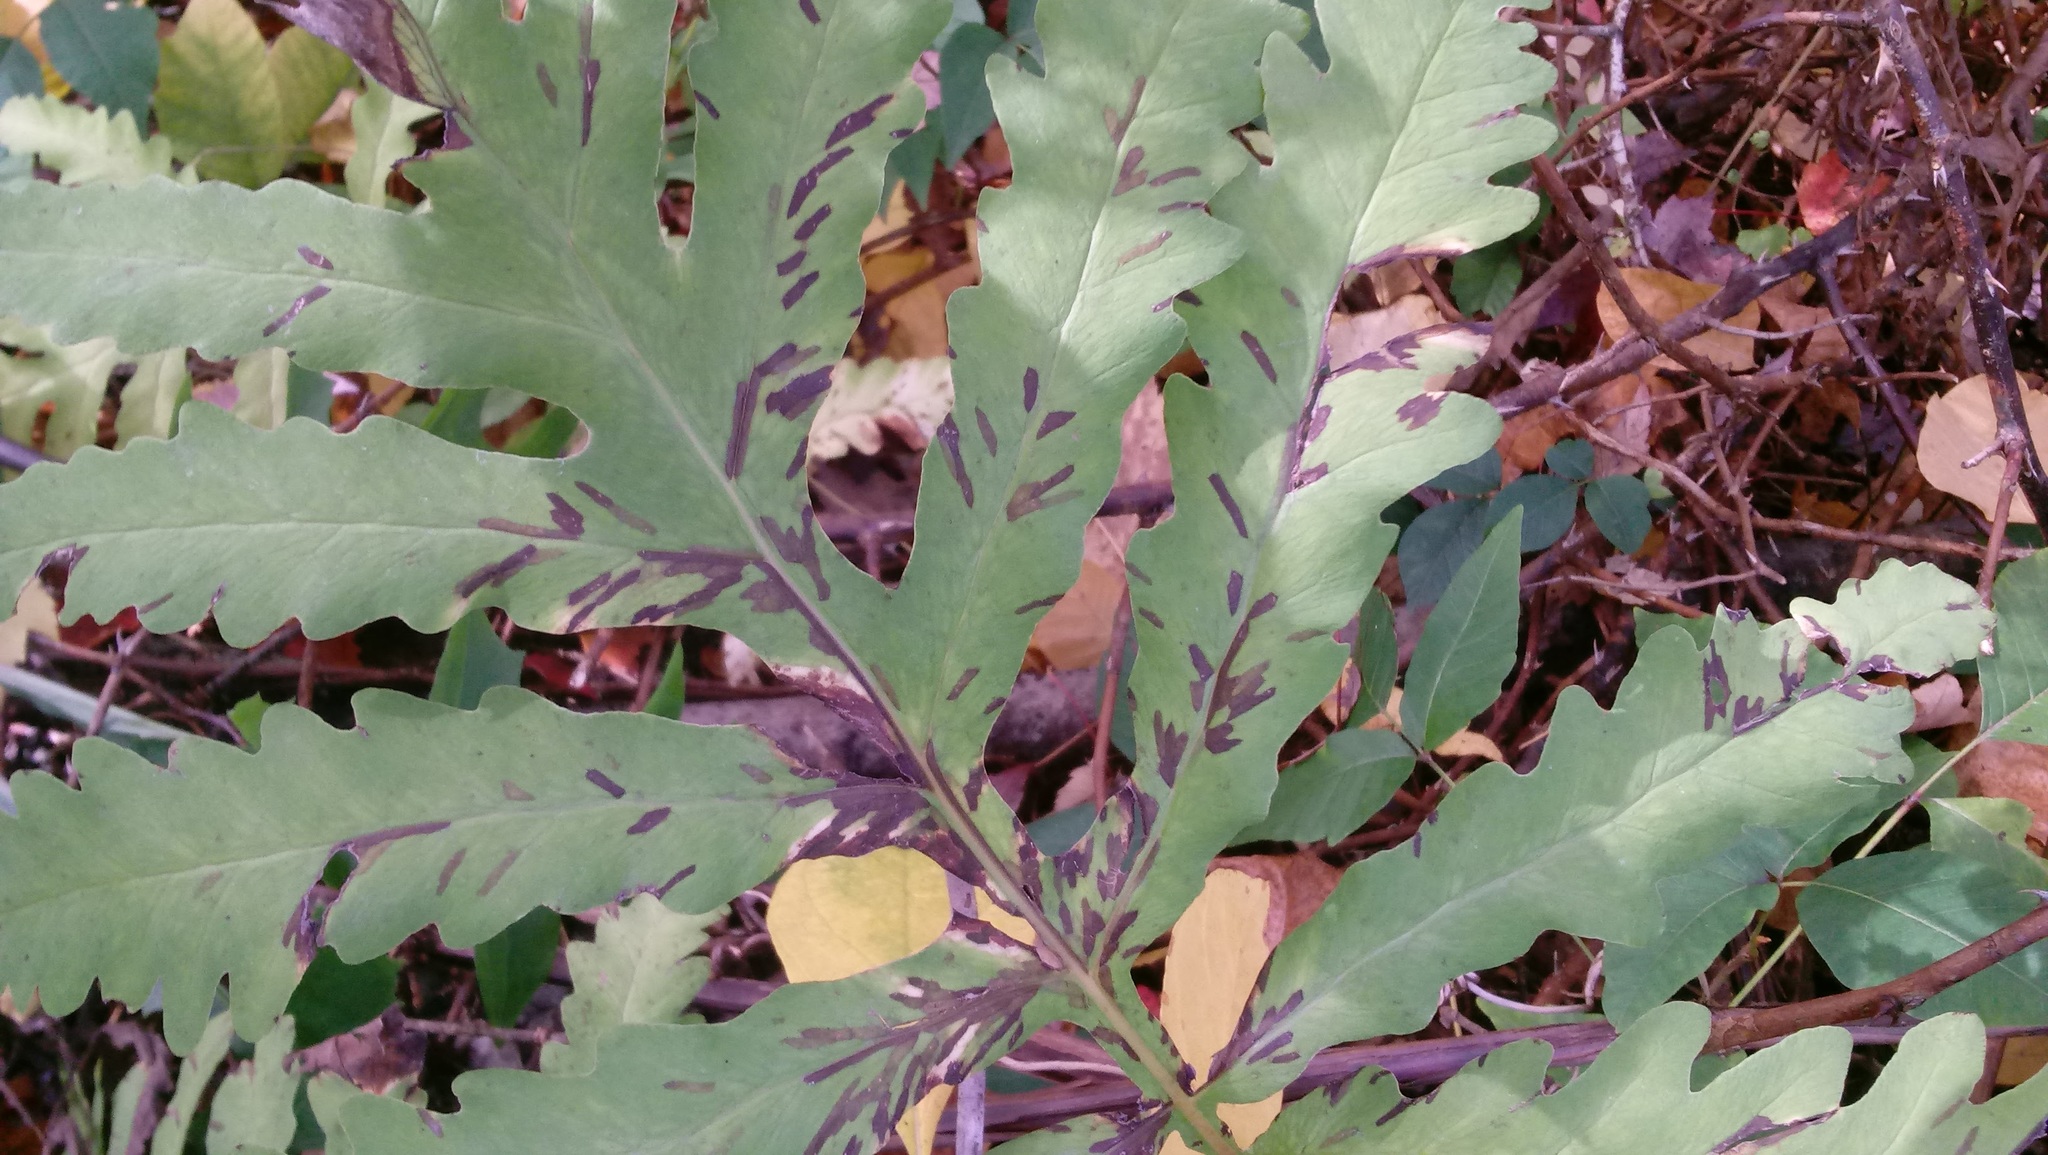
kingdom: Plantae
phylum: Tracheophyta
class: Polypodiopsida
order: Polypodiales
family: Onocleaceae
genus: Onoclea
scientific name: Onoclea sensibilis
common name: Sensitive fern
